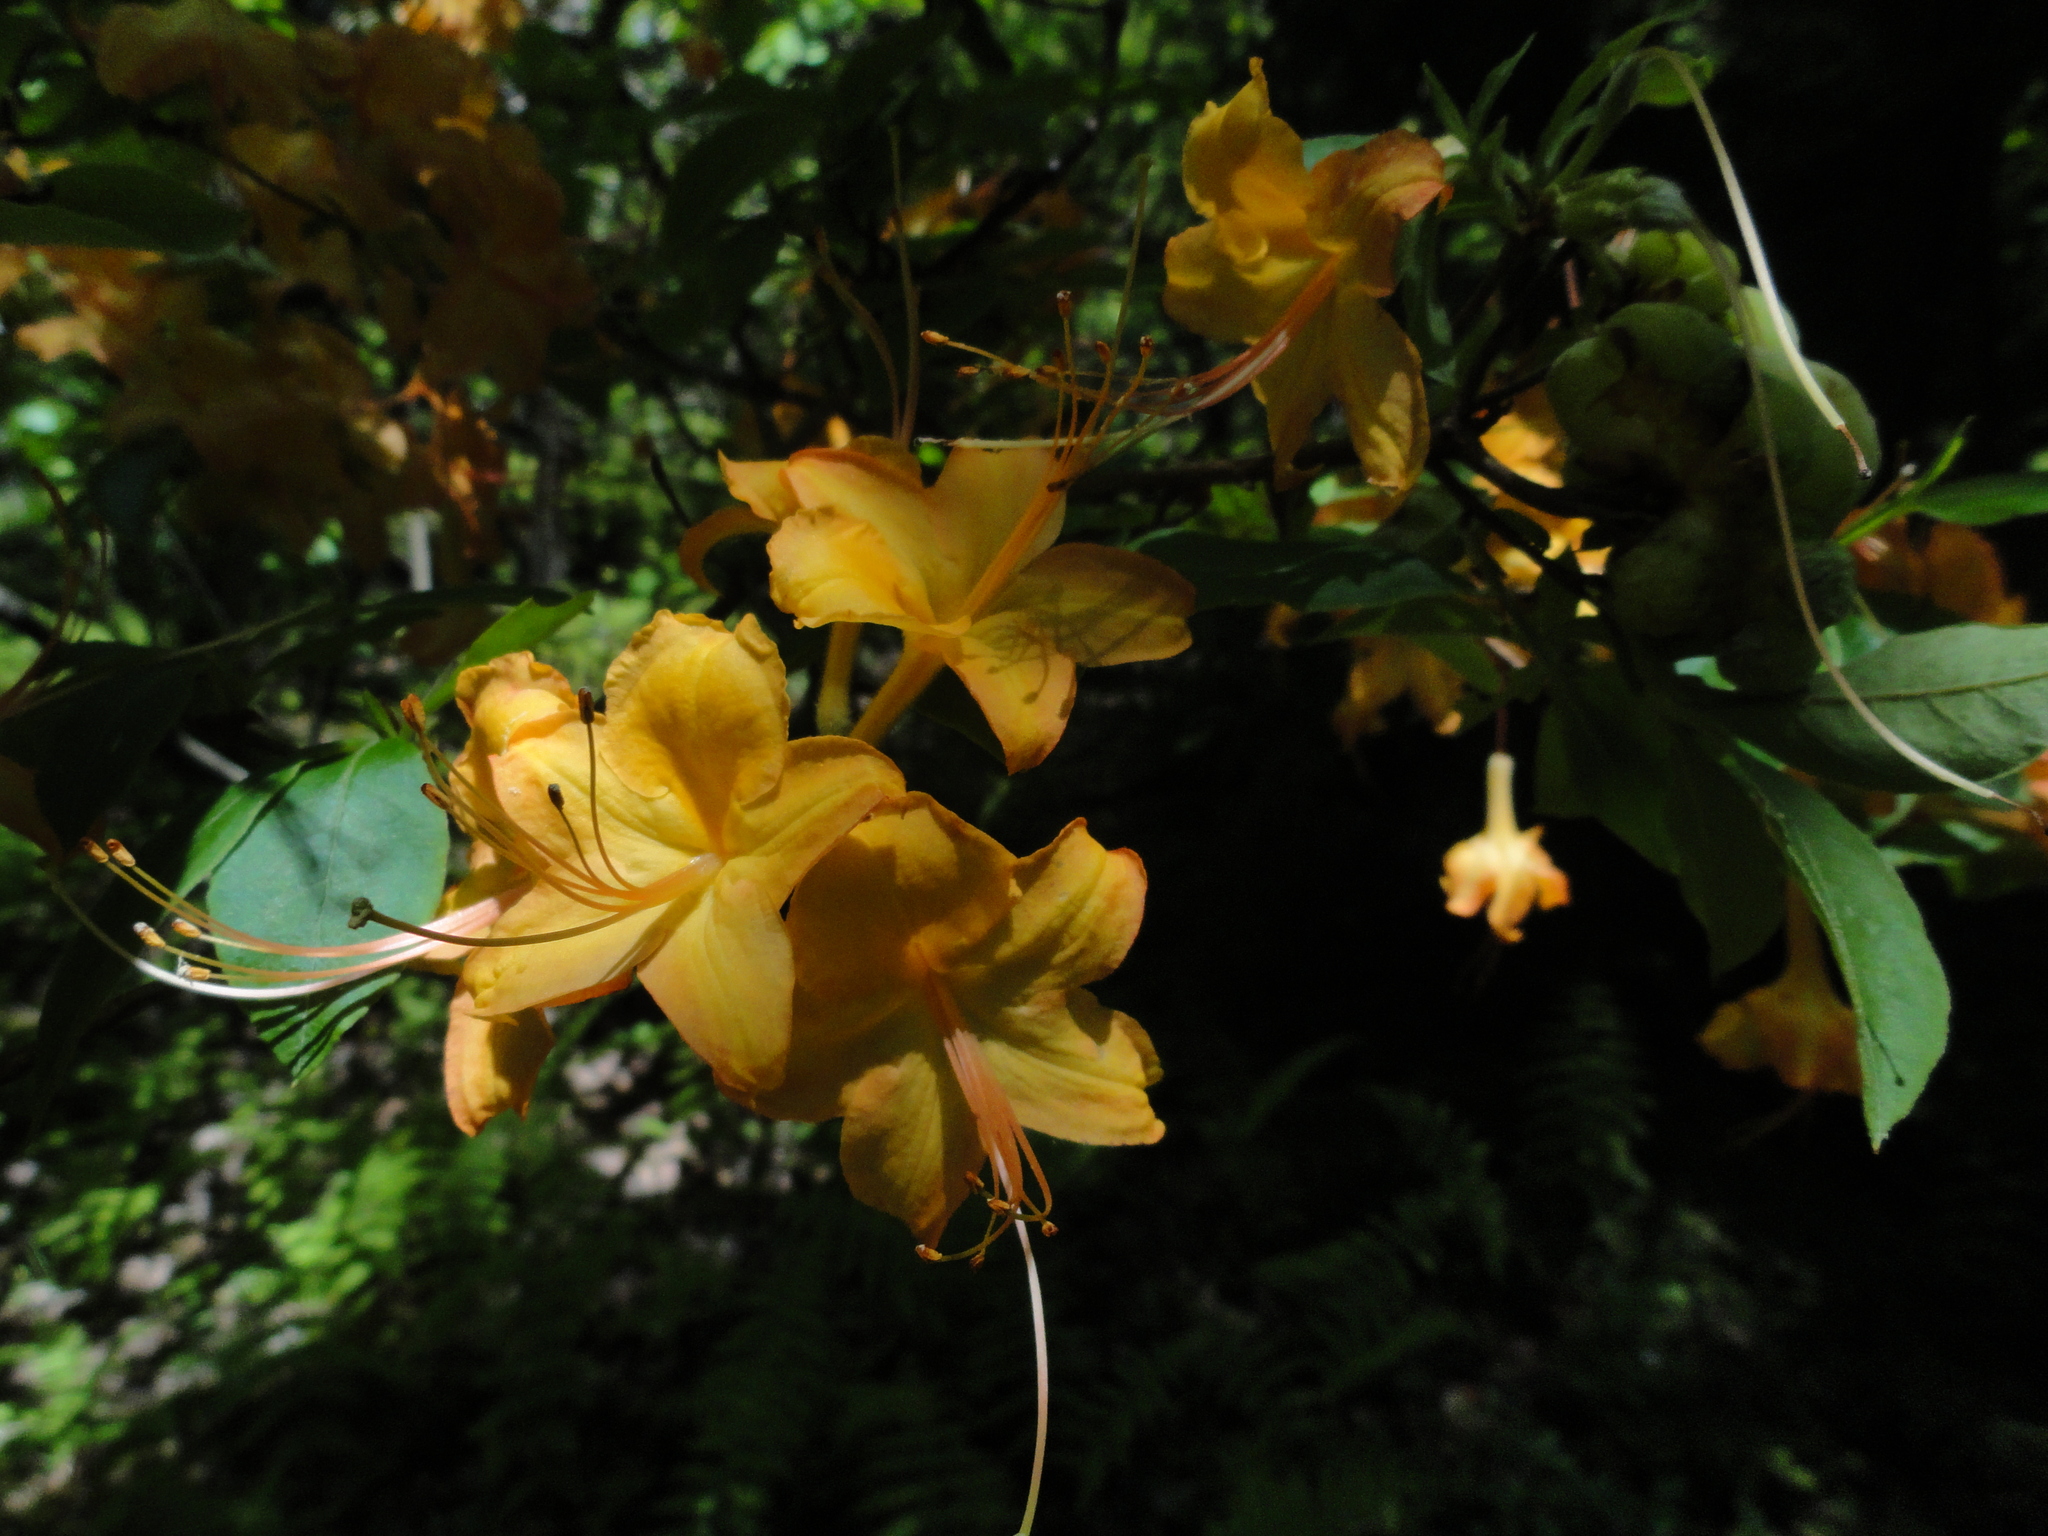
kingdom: Plantae
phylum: Tracheophyta
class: Magnoliopsida
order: Ericales
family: Ericaceae
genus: Rhododendron
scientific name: Rhododendron calendulaceum
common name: Flame azalea
